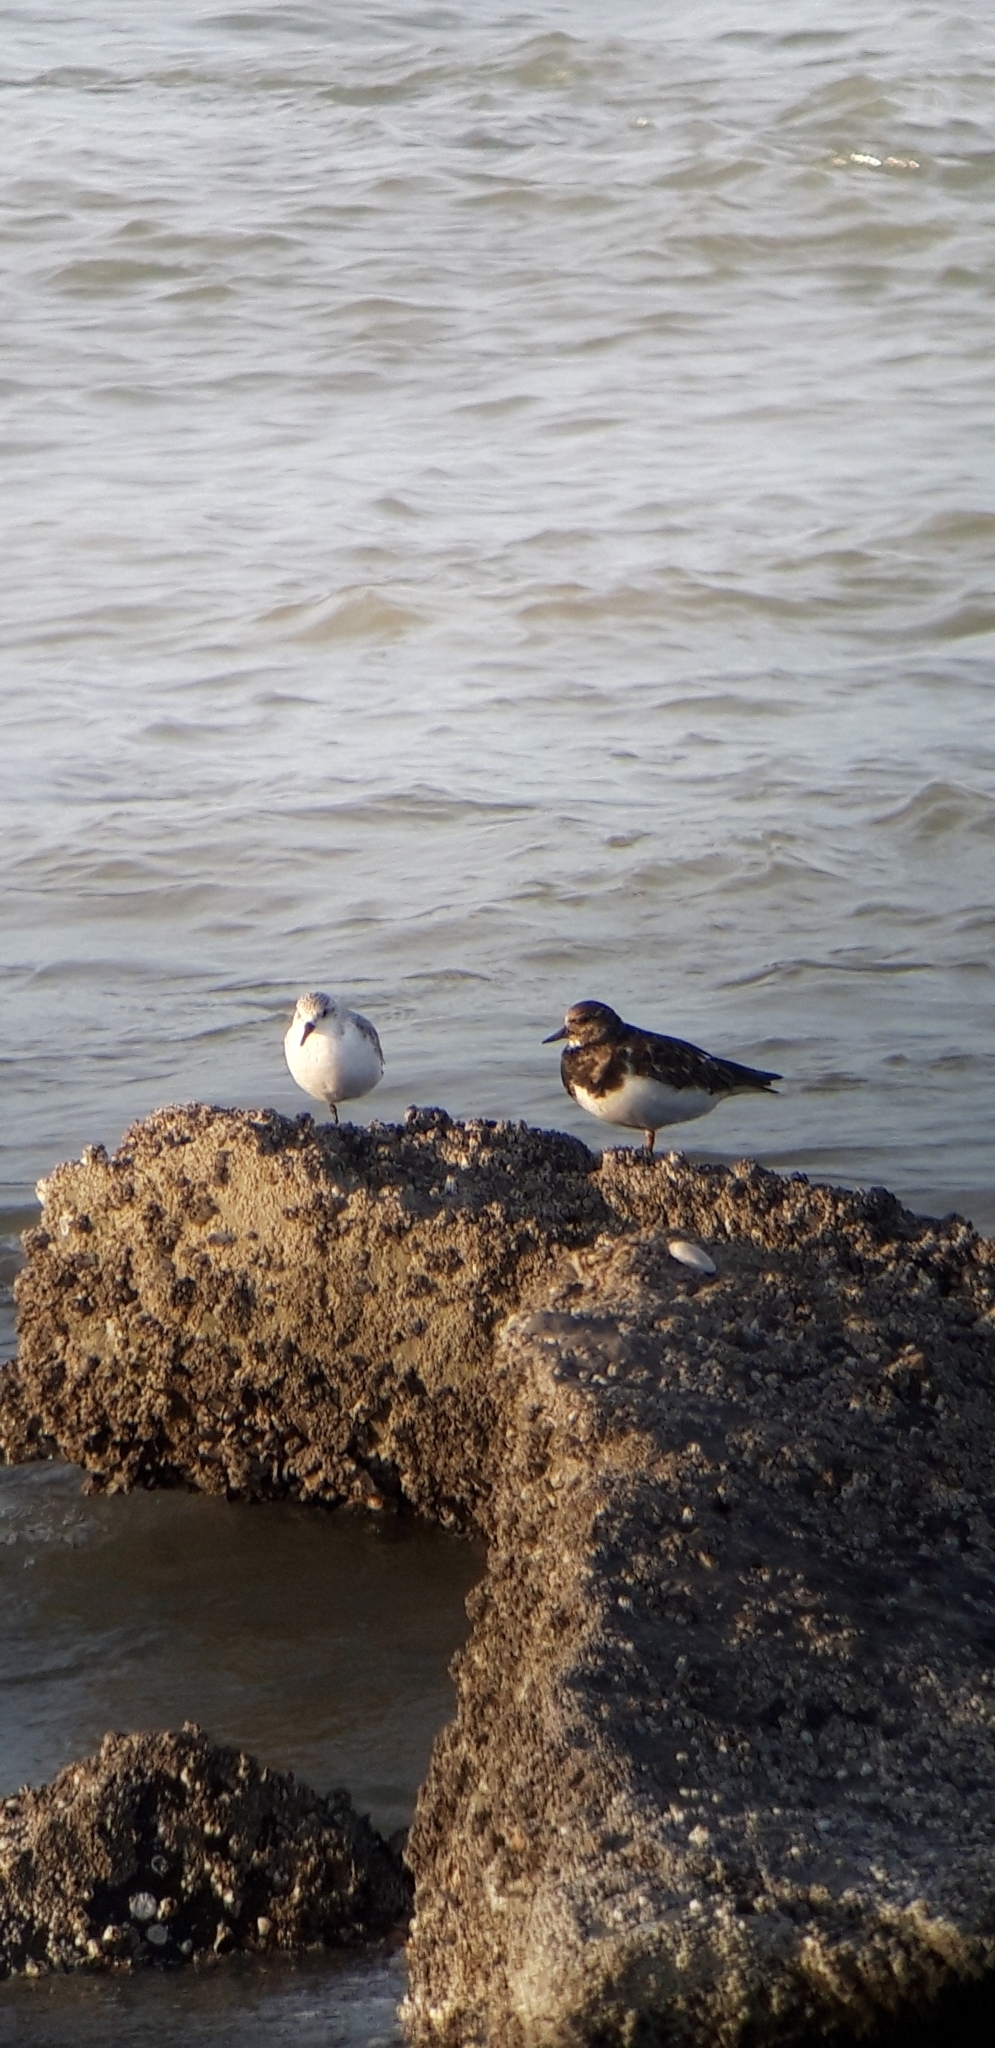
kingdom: Animalia
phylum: Chordata
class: Aves
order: Charadriiformes
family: Scolopacidae
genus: Arenaria
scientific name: Arenaria interpres
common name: Ruddy turnstone
